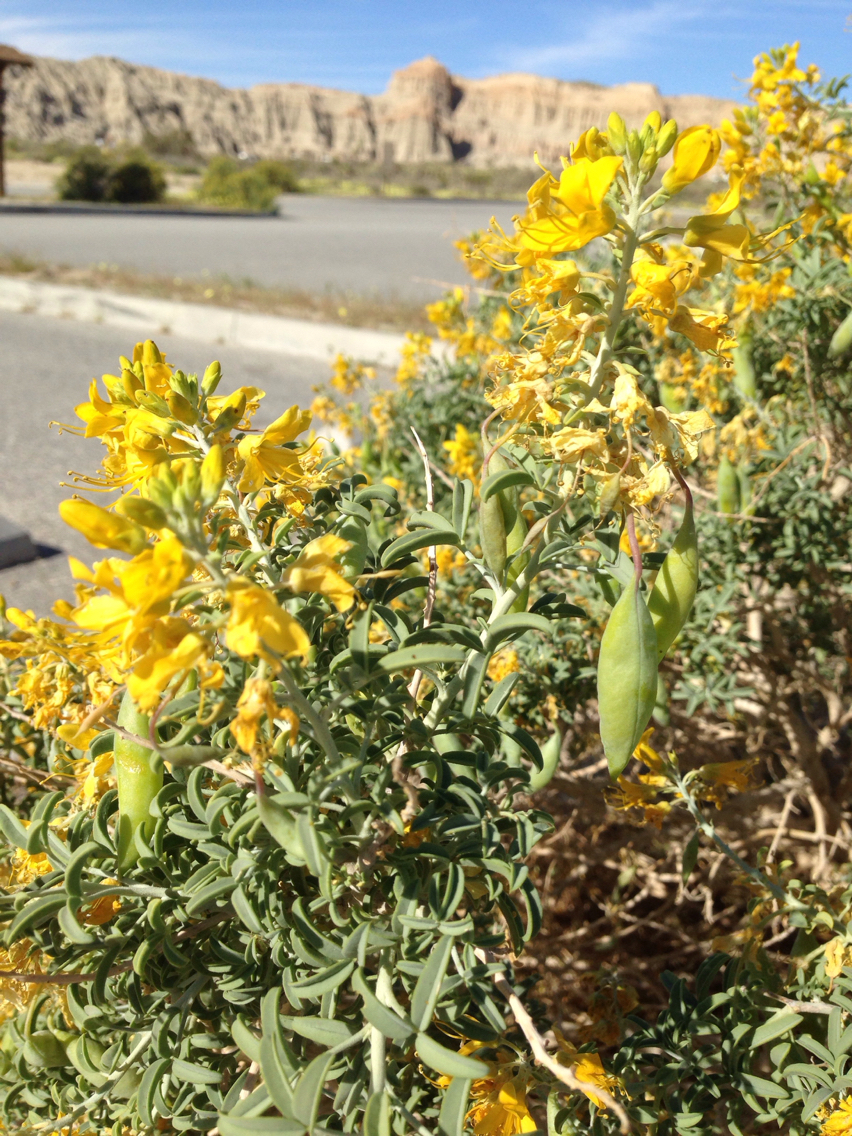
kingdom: Plantae
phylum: Tracheophyta
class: Magnoliopsida
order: Brassicales
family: Cleomaceae
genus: Cleomella
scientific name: Cleomella arborea
